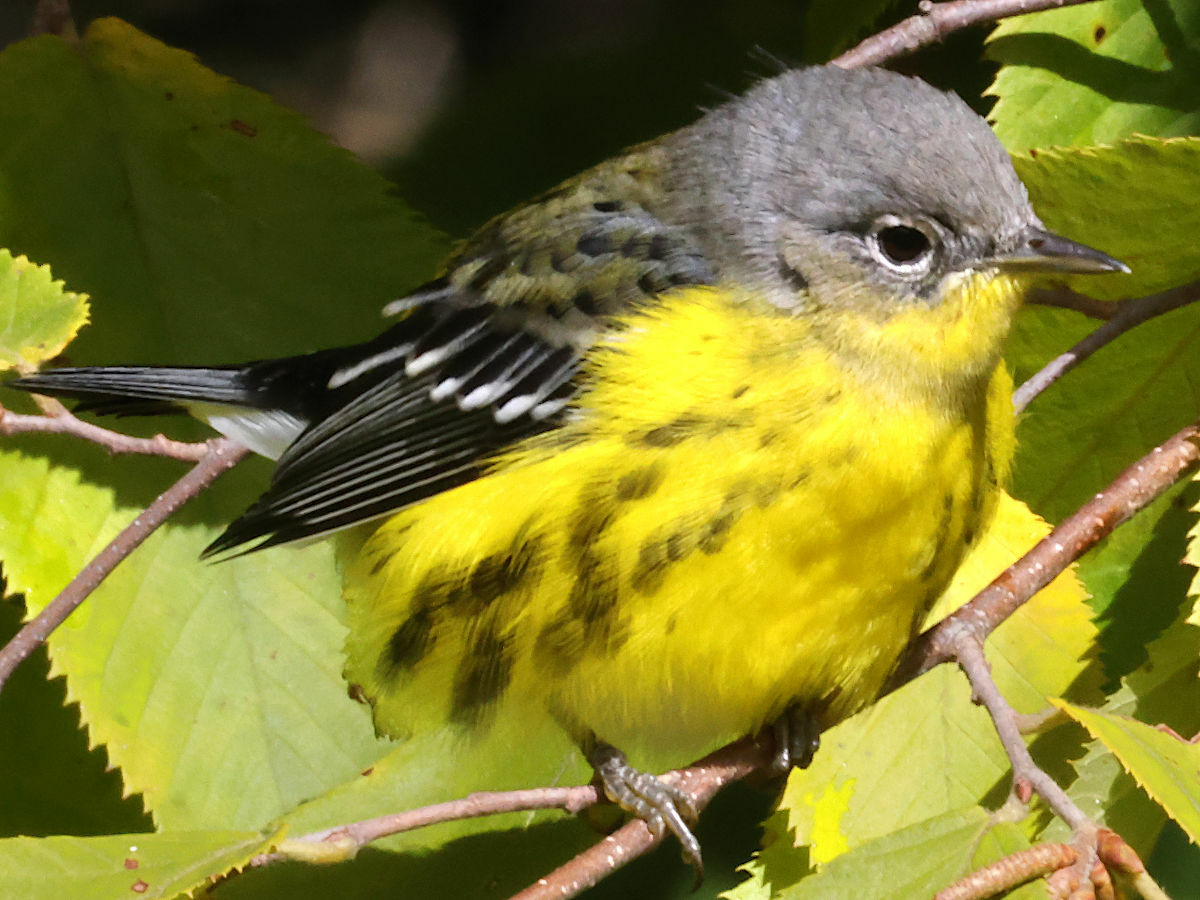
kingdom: Animalia
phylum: Chordata
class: Aves
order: Passeriformes
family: Parulidae
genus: Setophaga
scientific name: Setophaga magnolia
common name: Magnolia warbler
